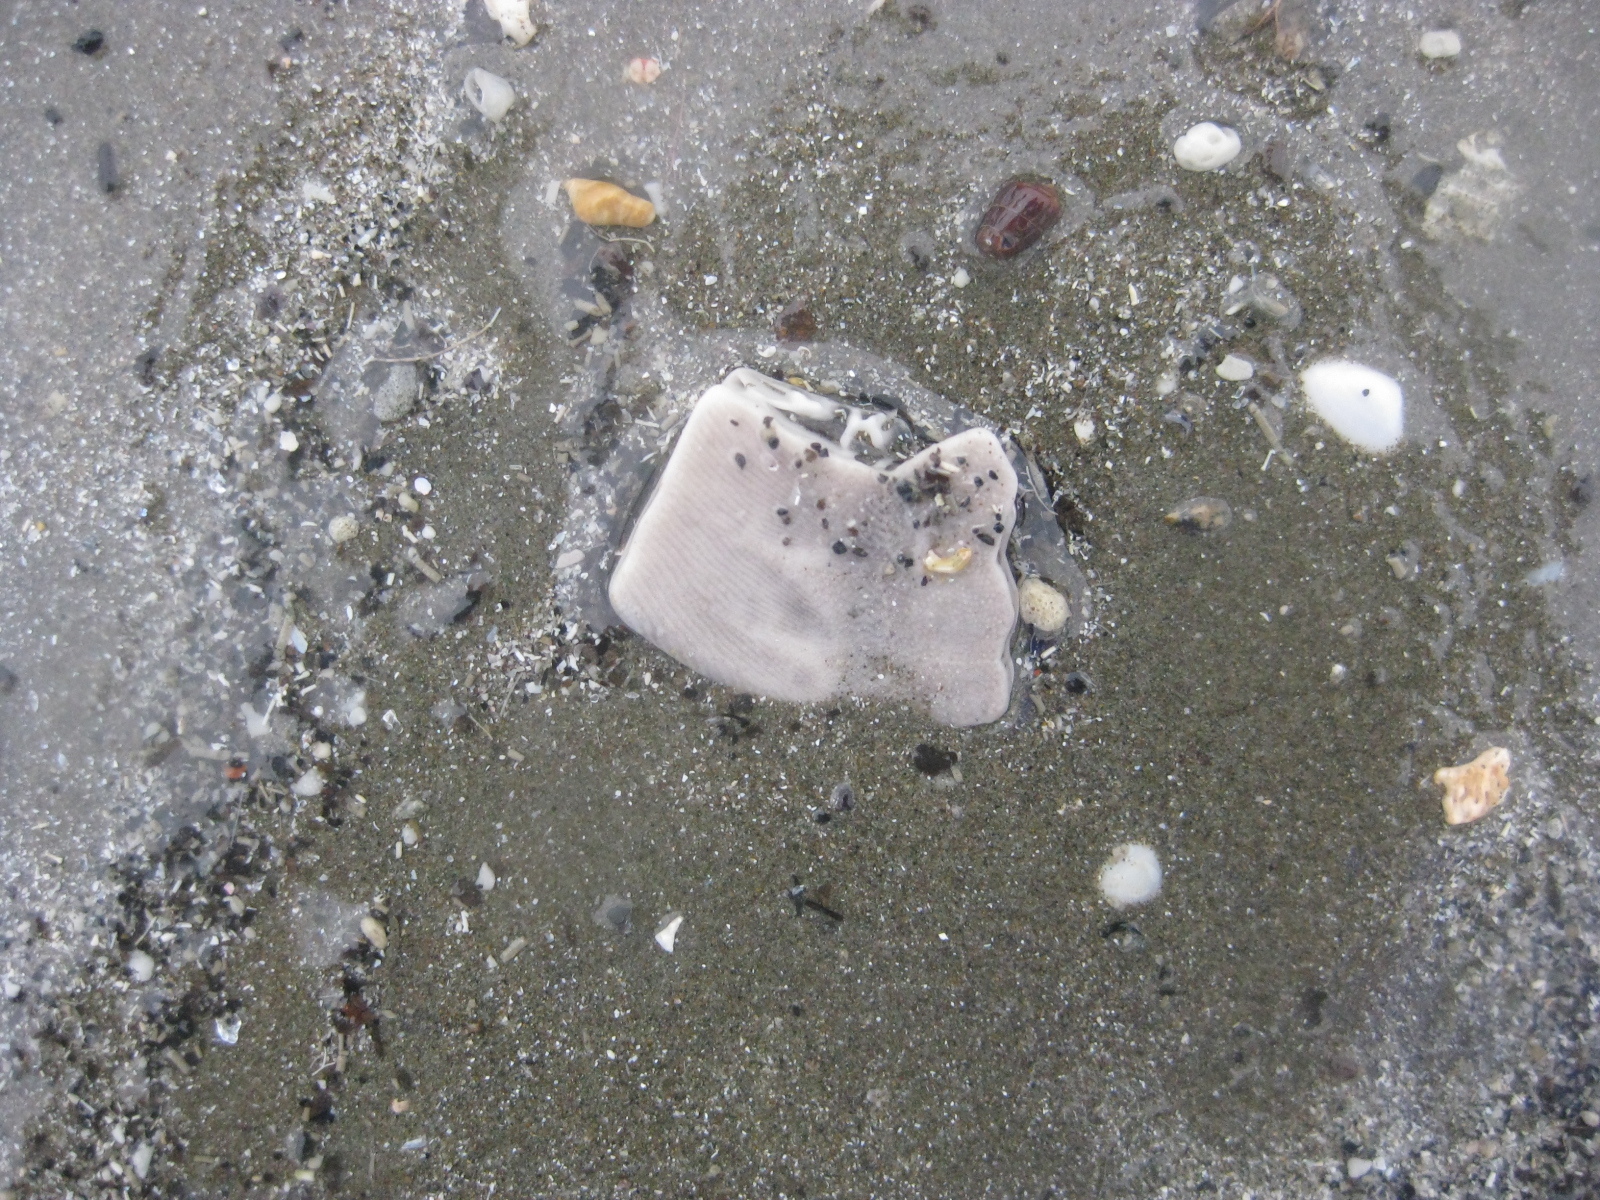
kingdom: Animalia
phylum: Echinodermata
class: Echinoidea
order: Clypeasteroida
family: Clypeasteridae
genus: Fellaster
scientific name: Fellaster zelandiae
